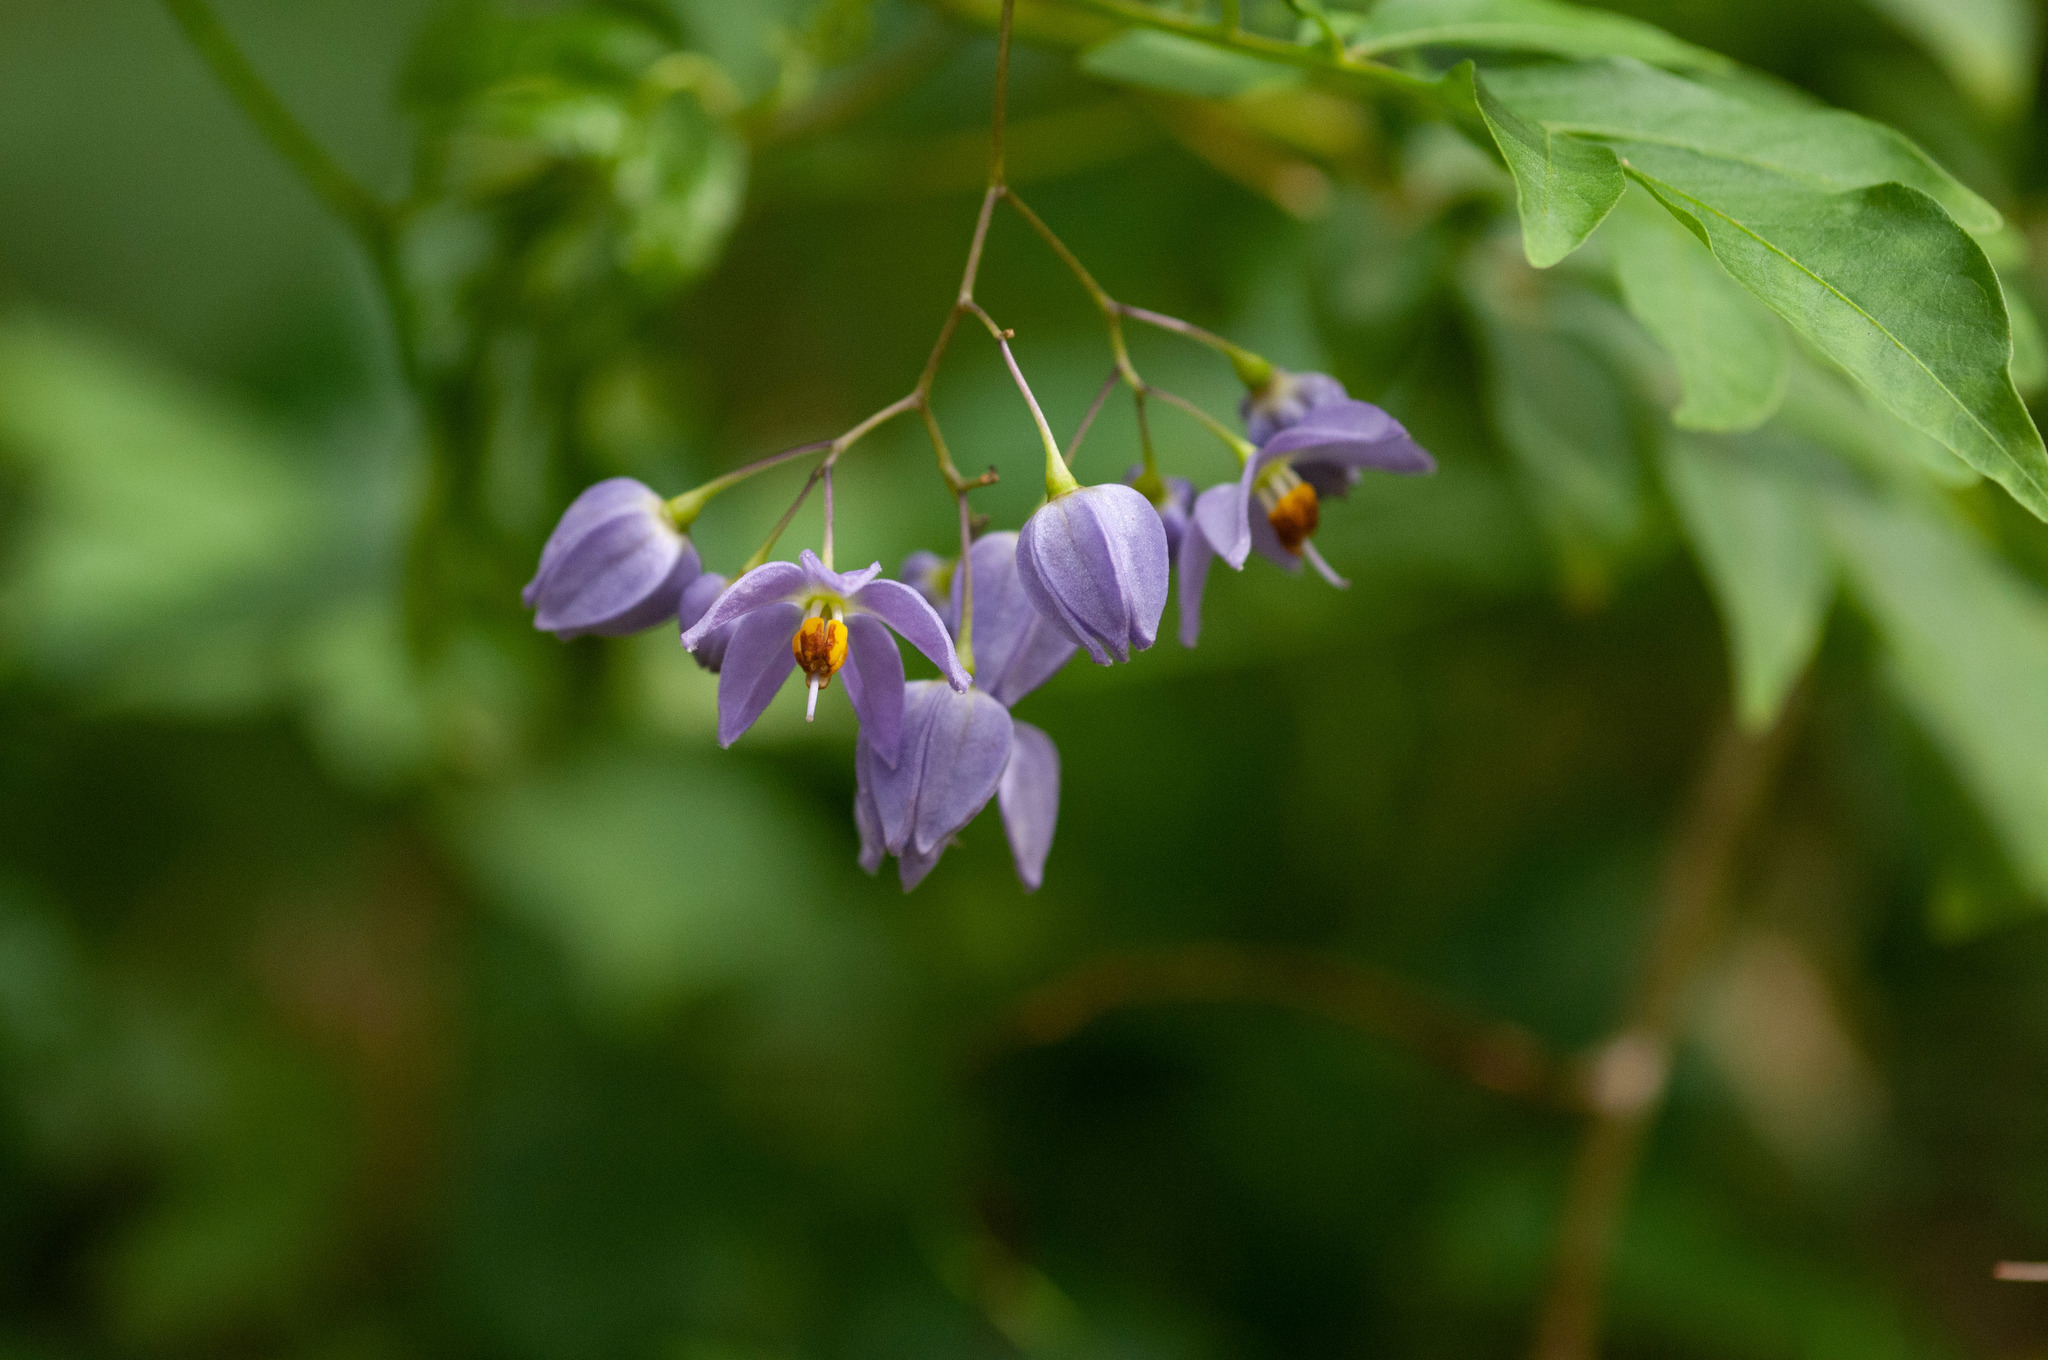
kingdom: Plantae
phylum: Tracheophyta
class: Magnoliopsida
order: Solanales
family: Solanaceae
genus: Solanum
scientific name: Solanum seaforthianum
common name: Brazilian nightshade
